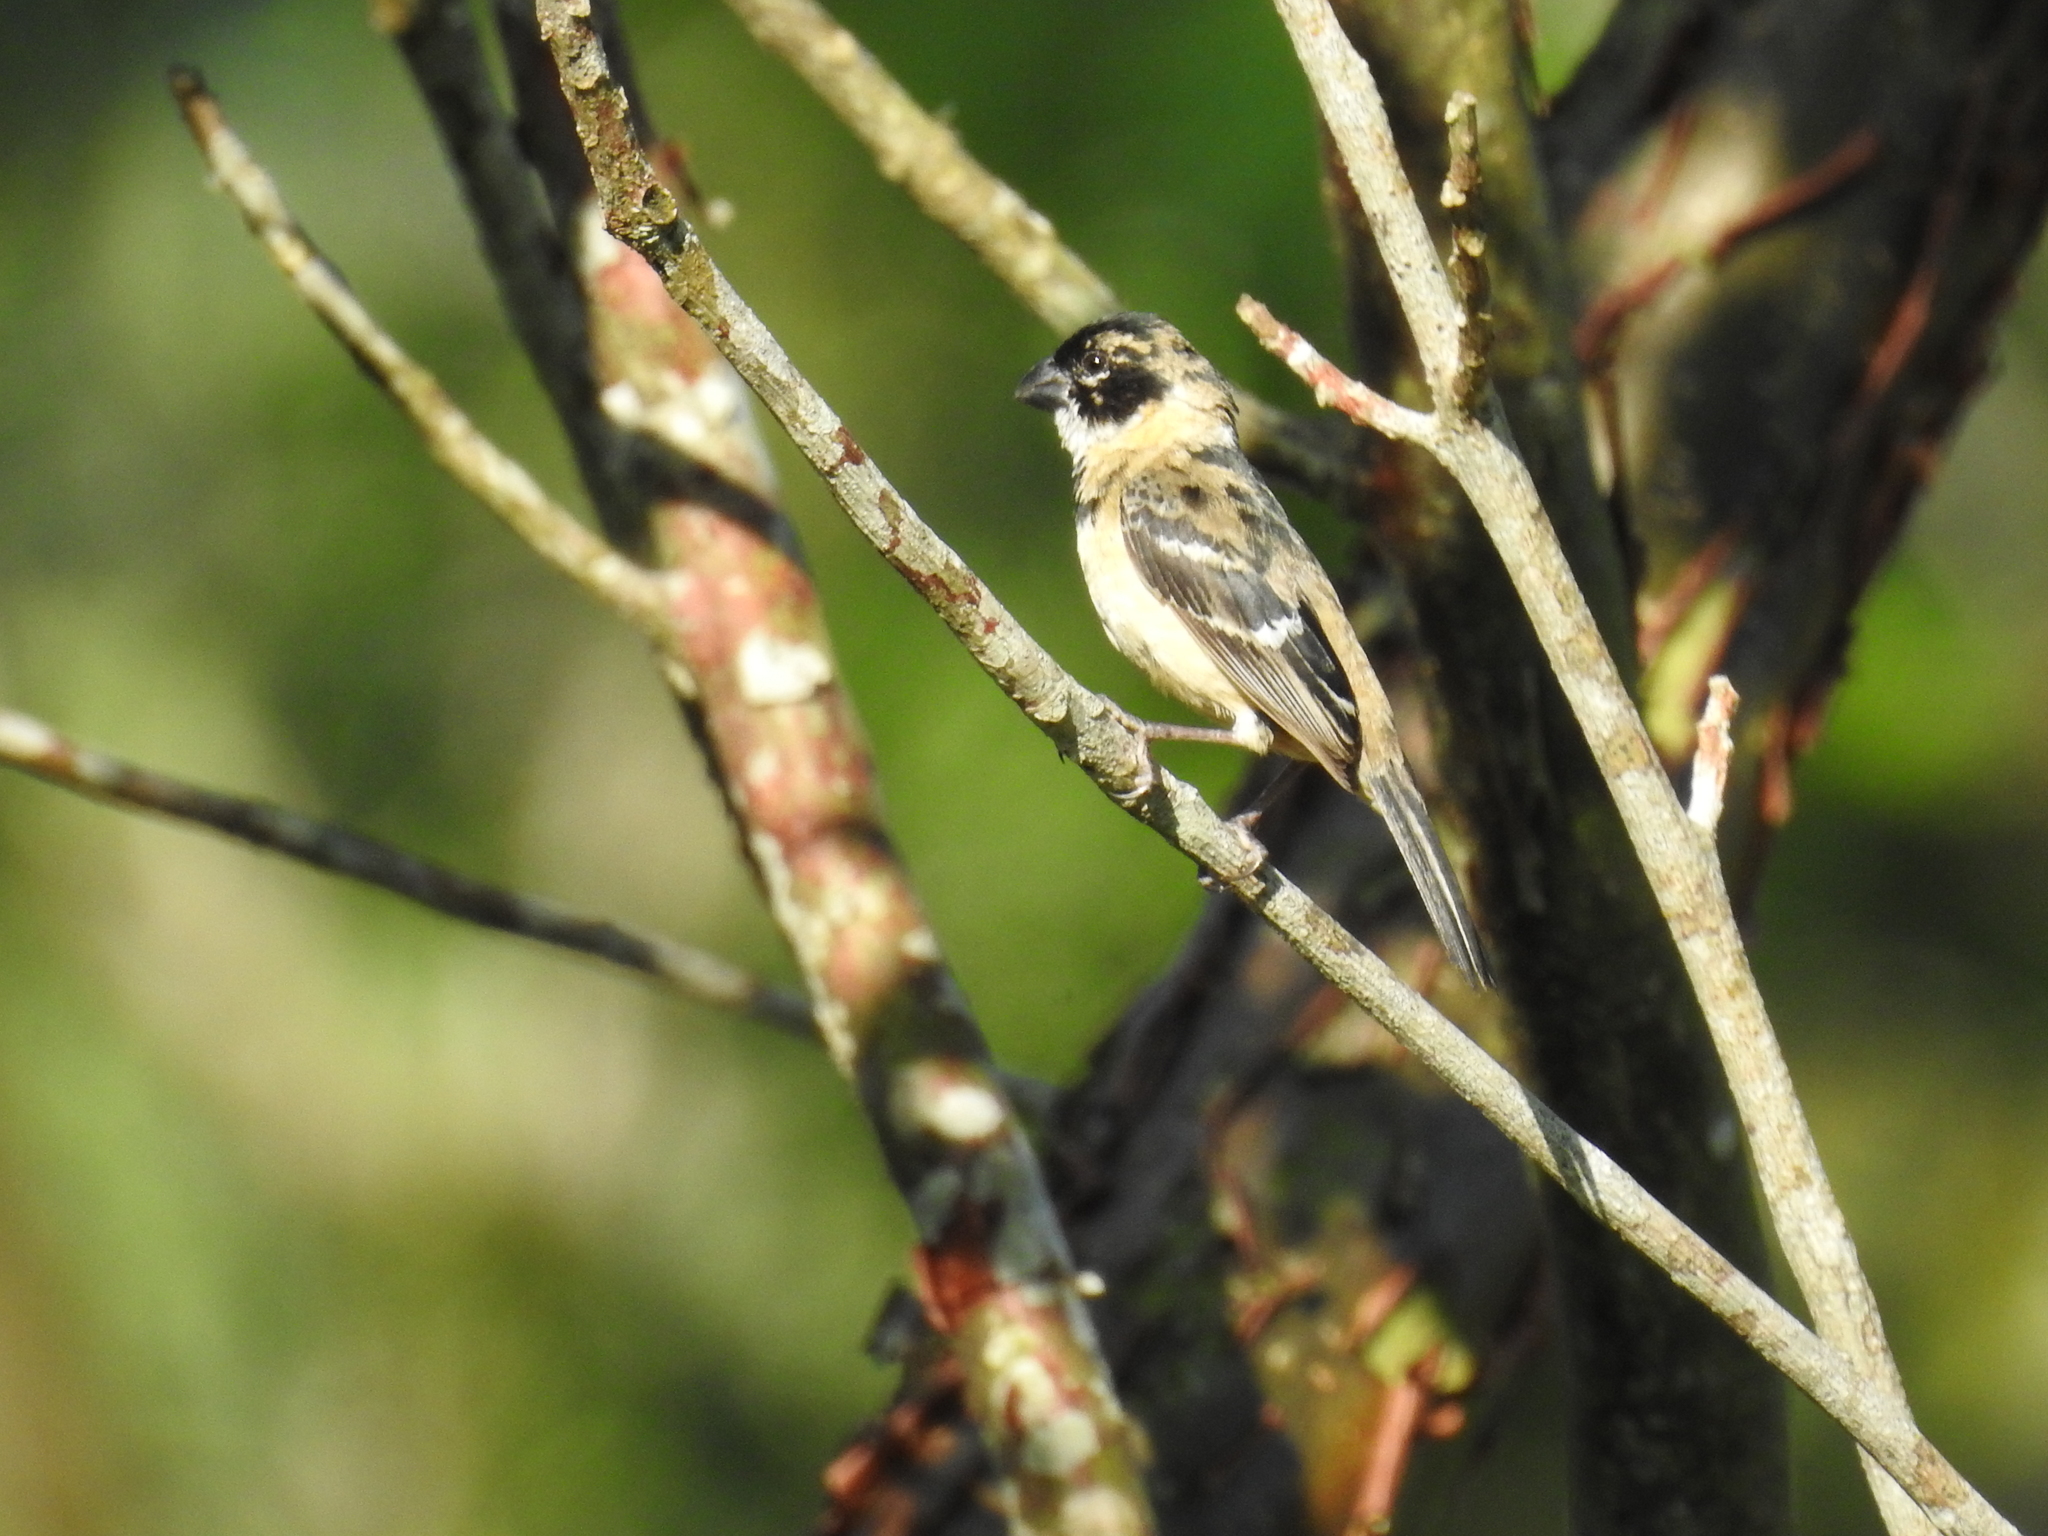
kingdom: Animalia
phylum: Chordata
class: Aves
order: Passeriformes
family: Thraupidae
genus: Sporophila
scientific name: Sporophila morelleti
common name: Morelet's seedeater
